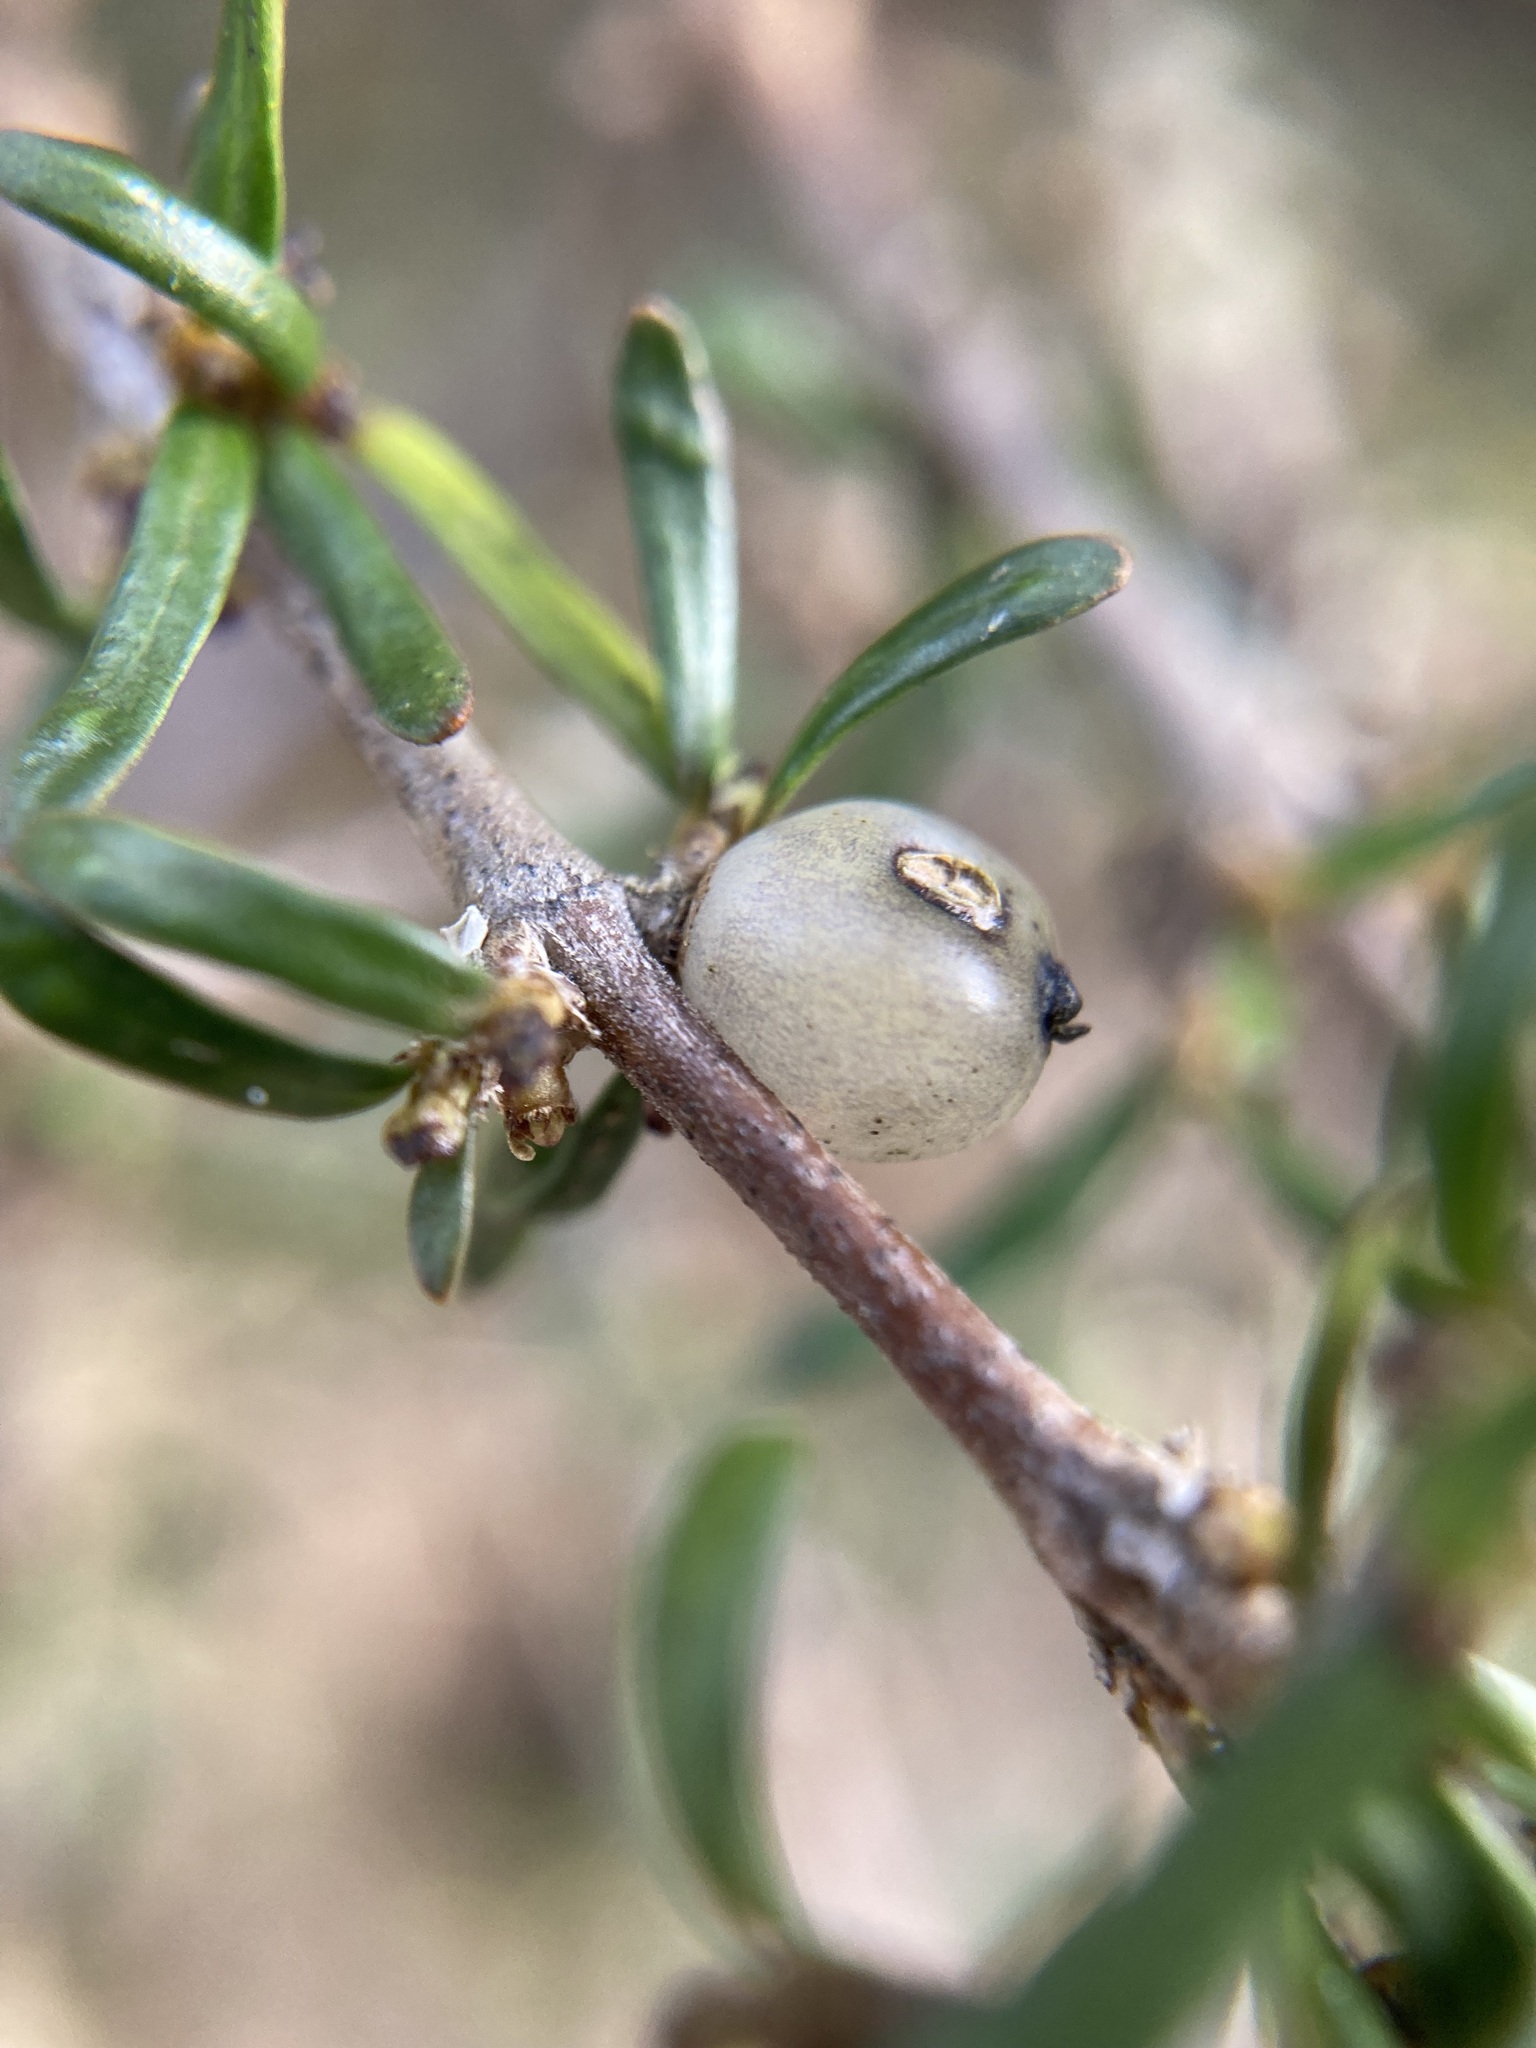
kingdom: Plantae
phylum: Tracheophyta
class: Magnoliopsida
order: Gentianales
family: Rubiaceae
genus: Coprosma
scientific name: Coprosma rugosa
